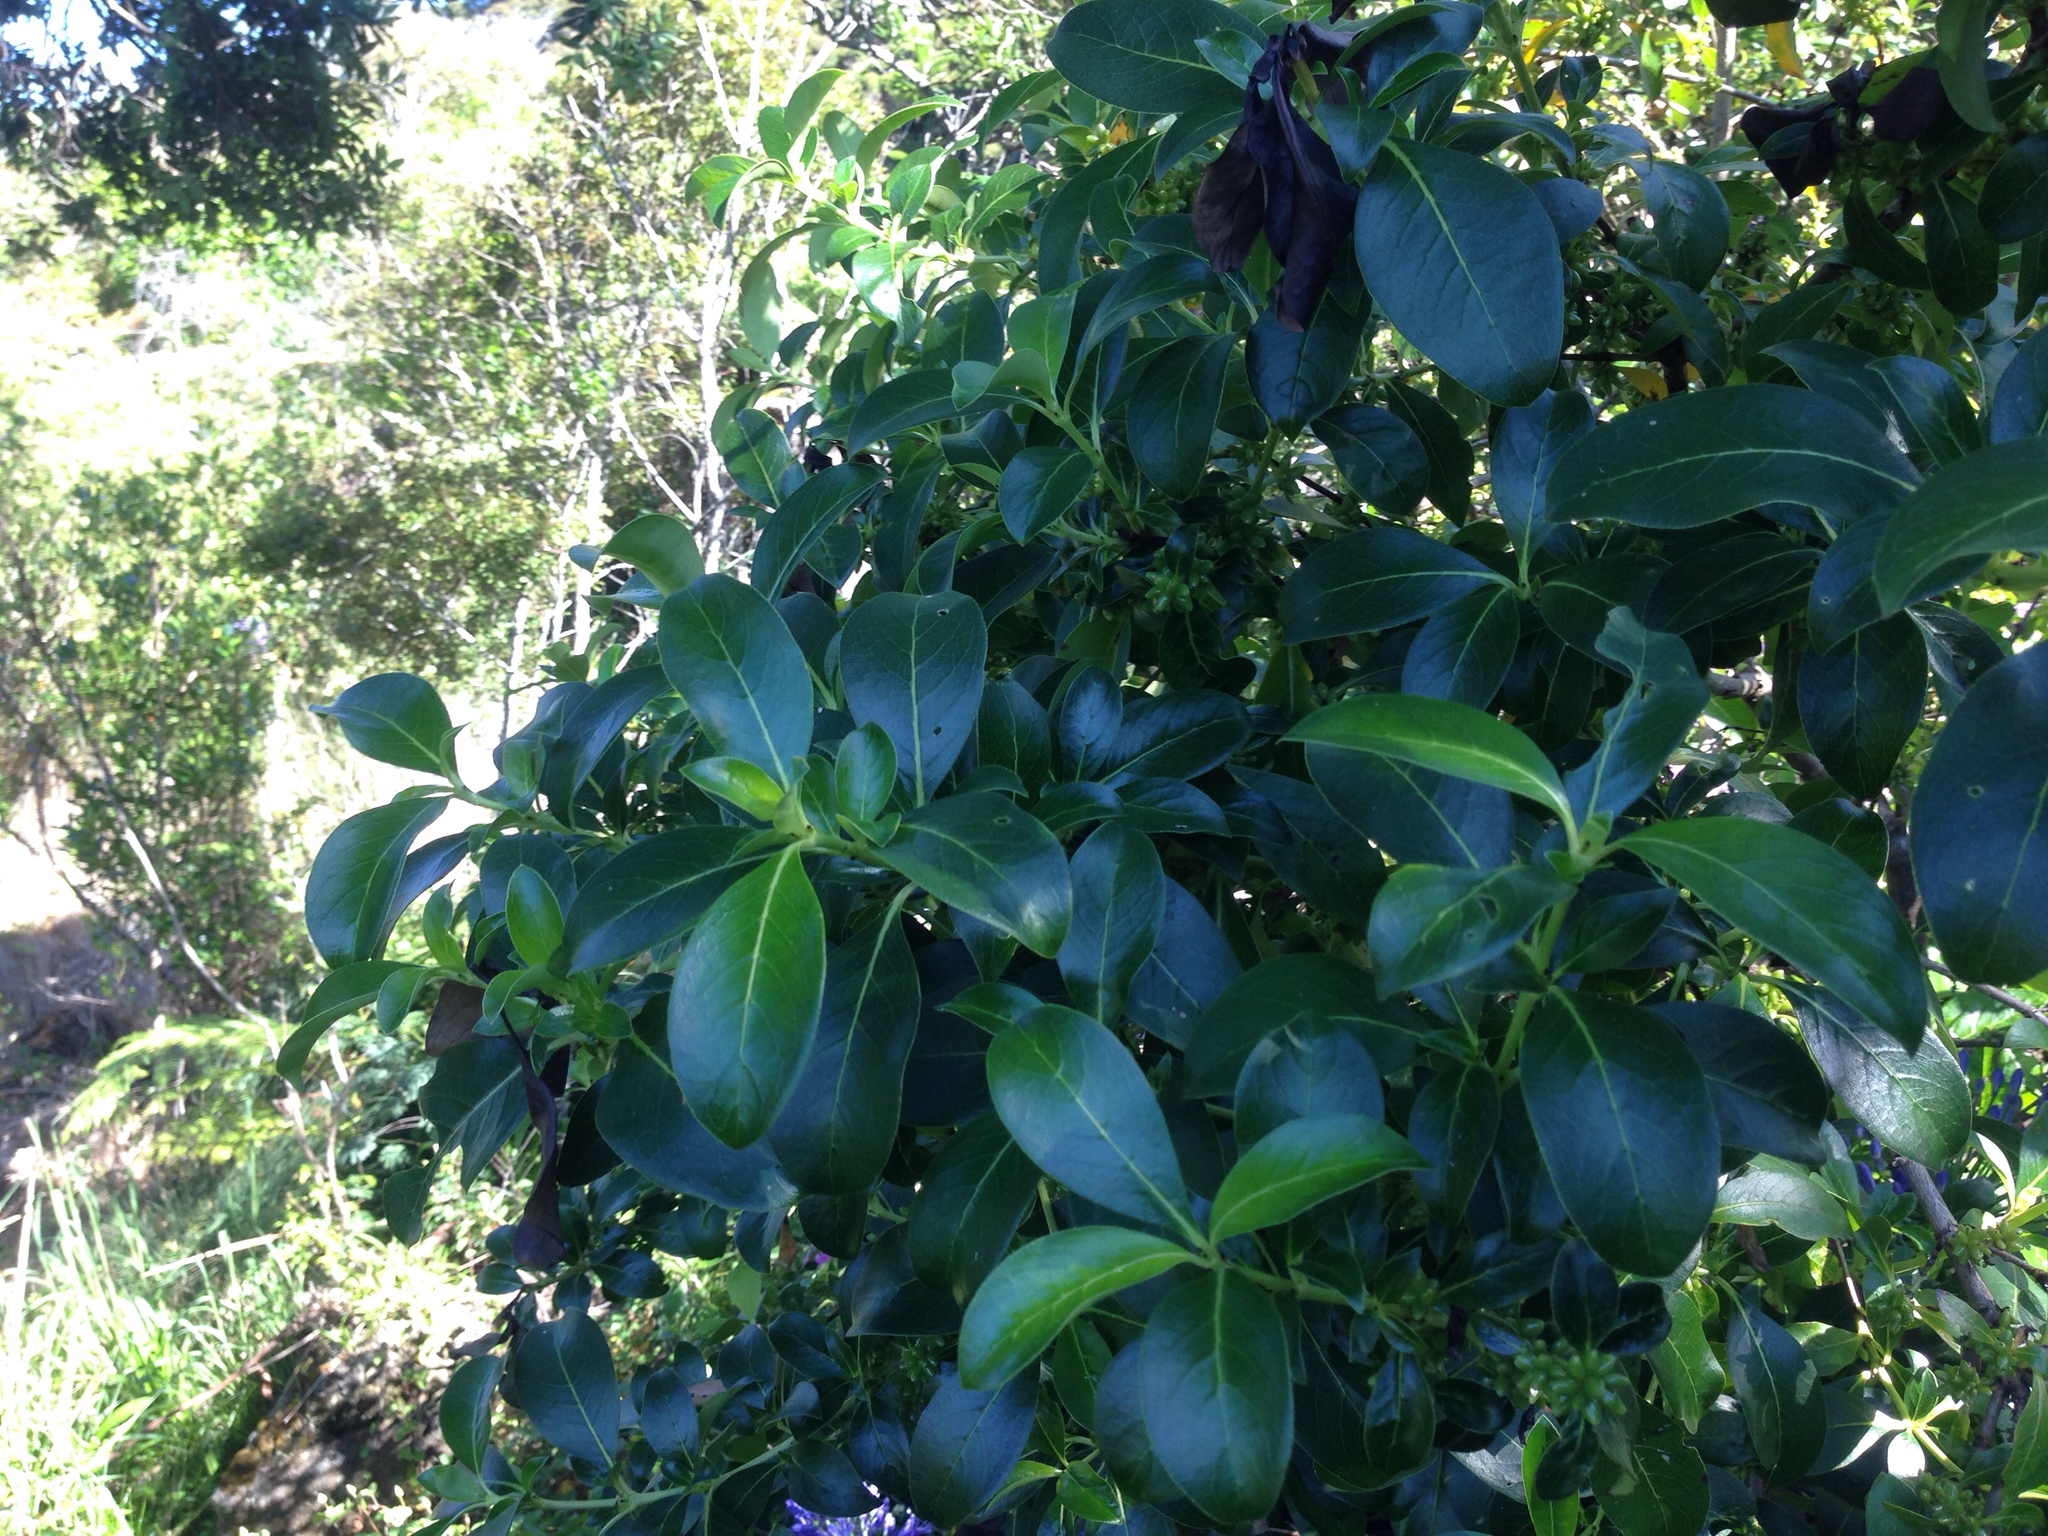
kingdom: Plantae
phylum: Tracheophyta
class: Magnoliopsida
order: Gentianales
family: Rubiaceae
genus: Coprosma
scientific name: Coprosma robusta
